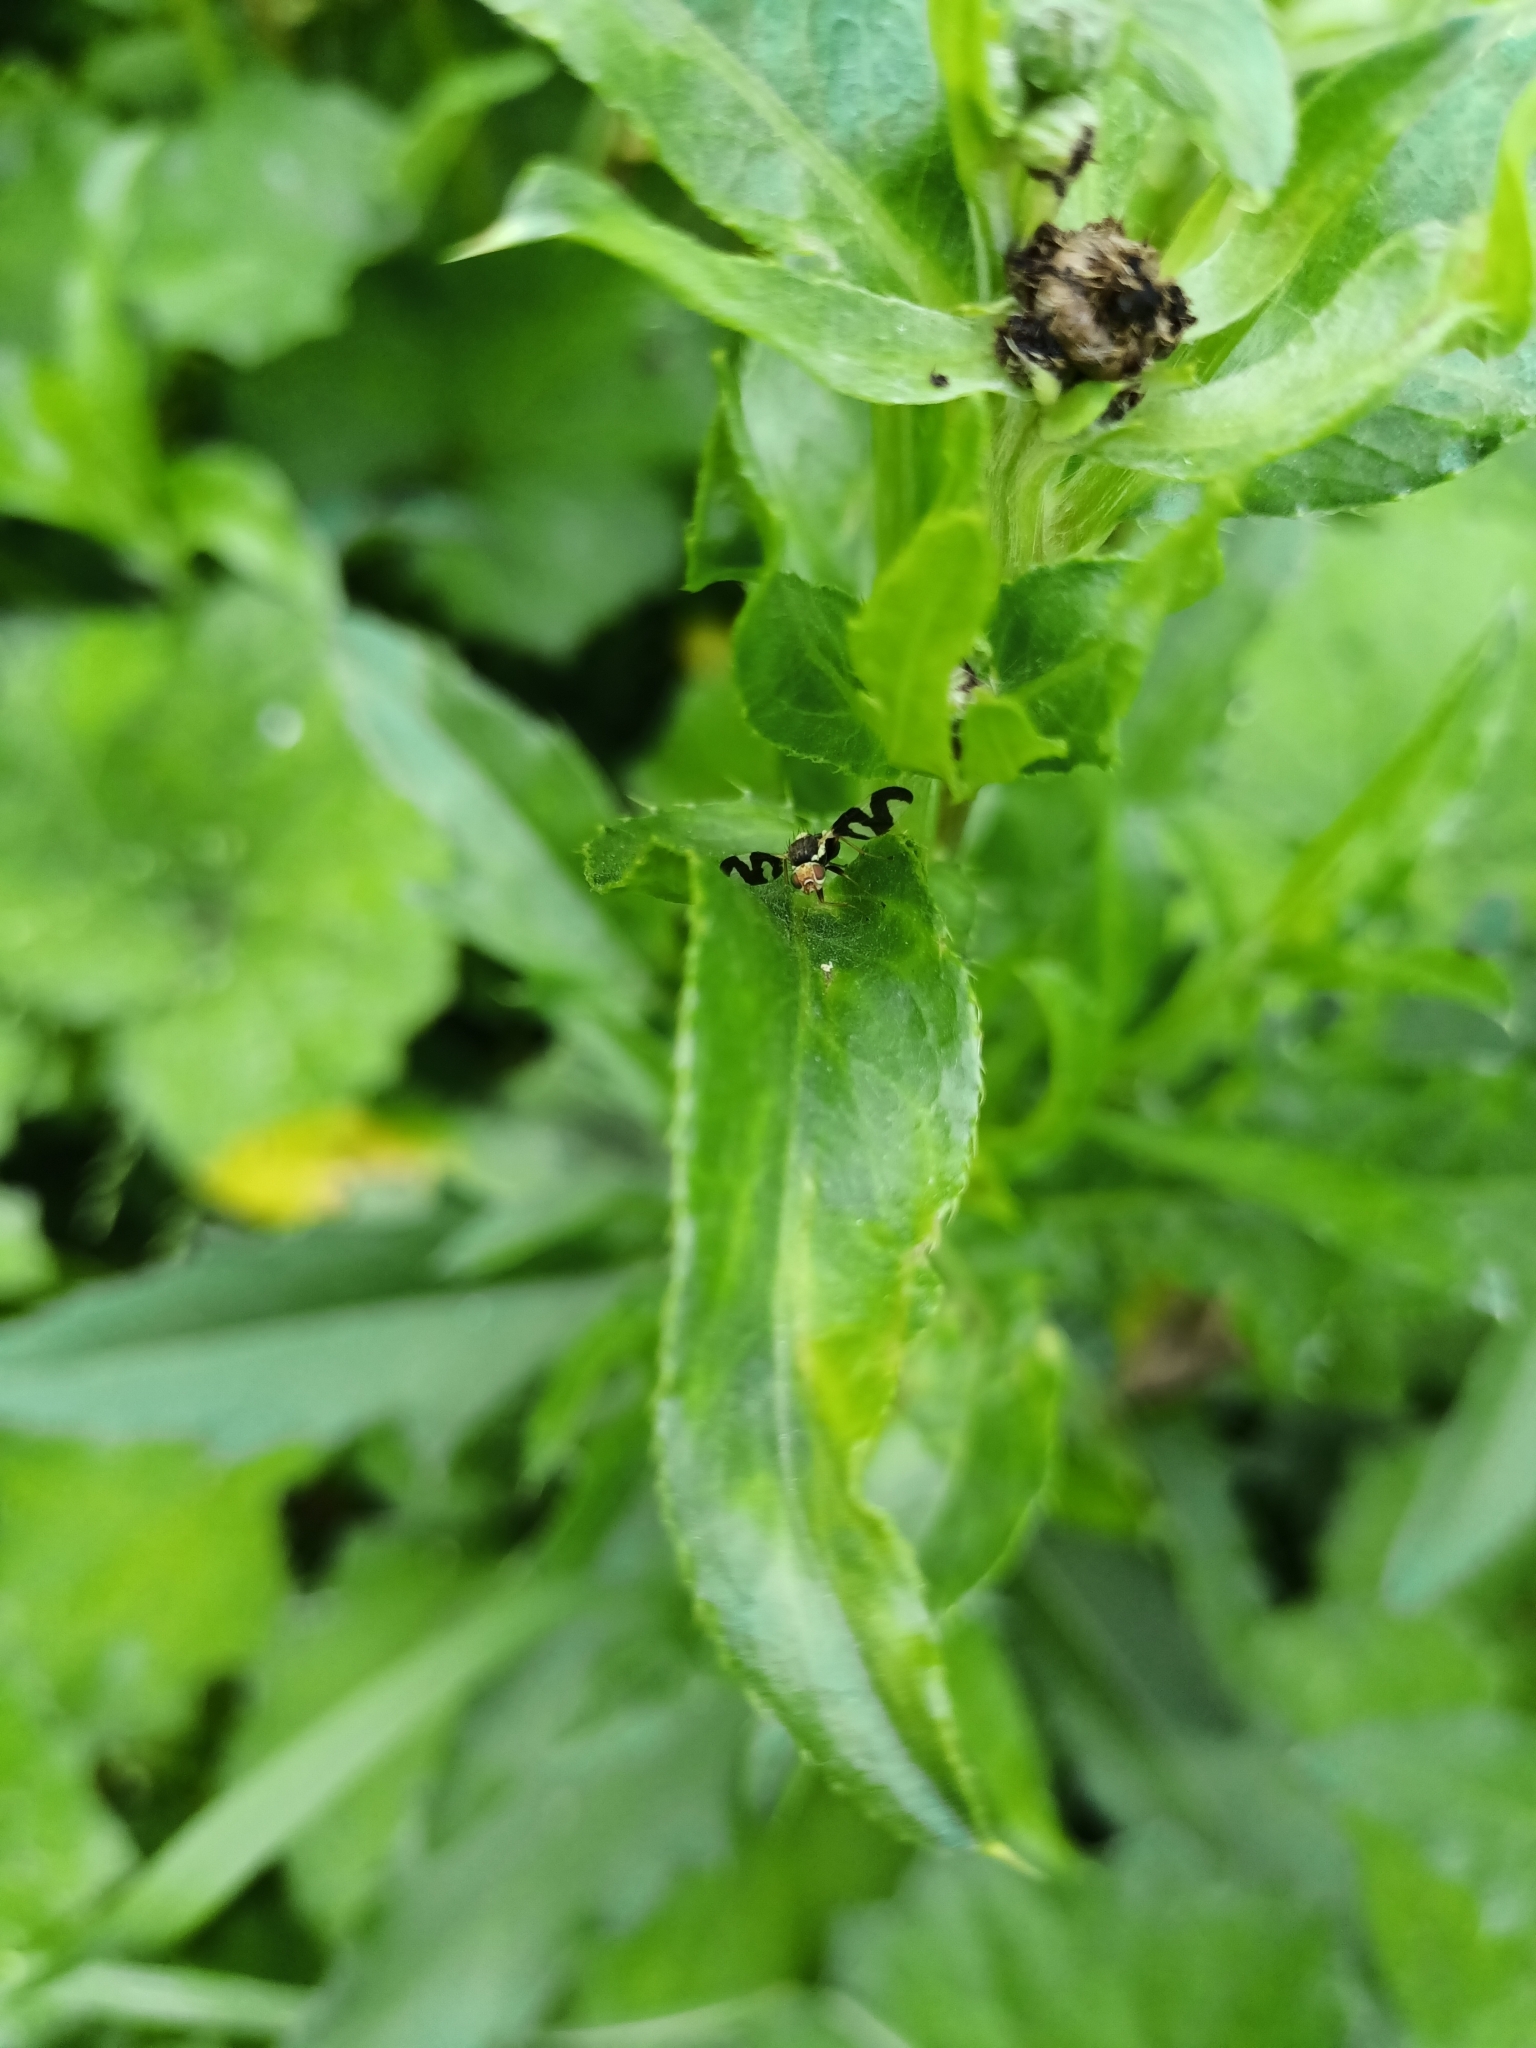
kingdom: Animalia
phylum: Arthropoda
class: Insecta
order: Diptera
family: Tephritidae
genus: Urophora
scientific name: Urophora cardui
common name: Fruit fly
